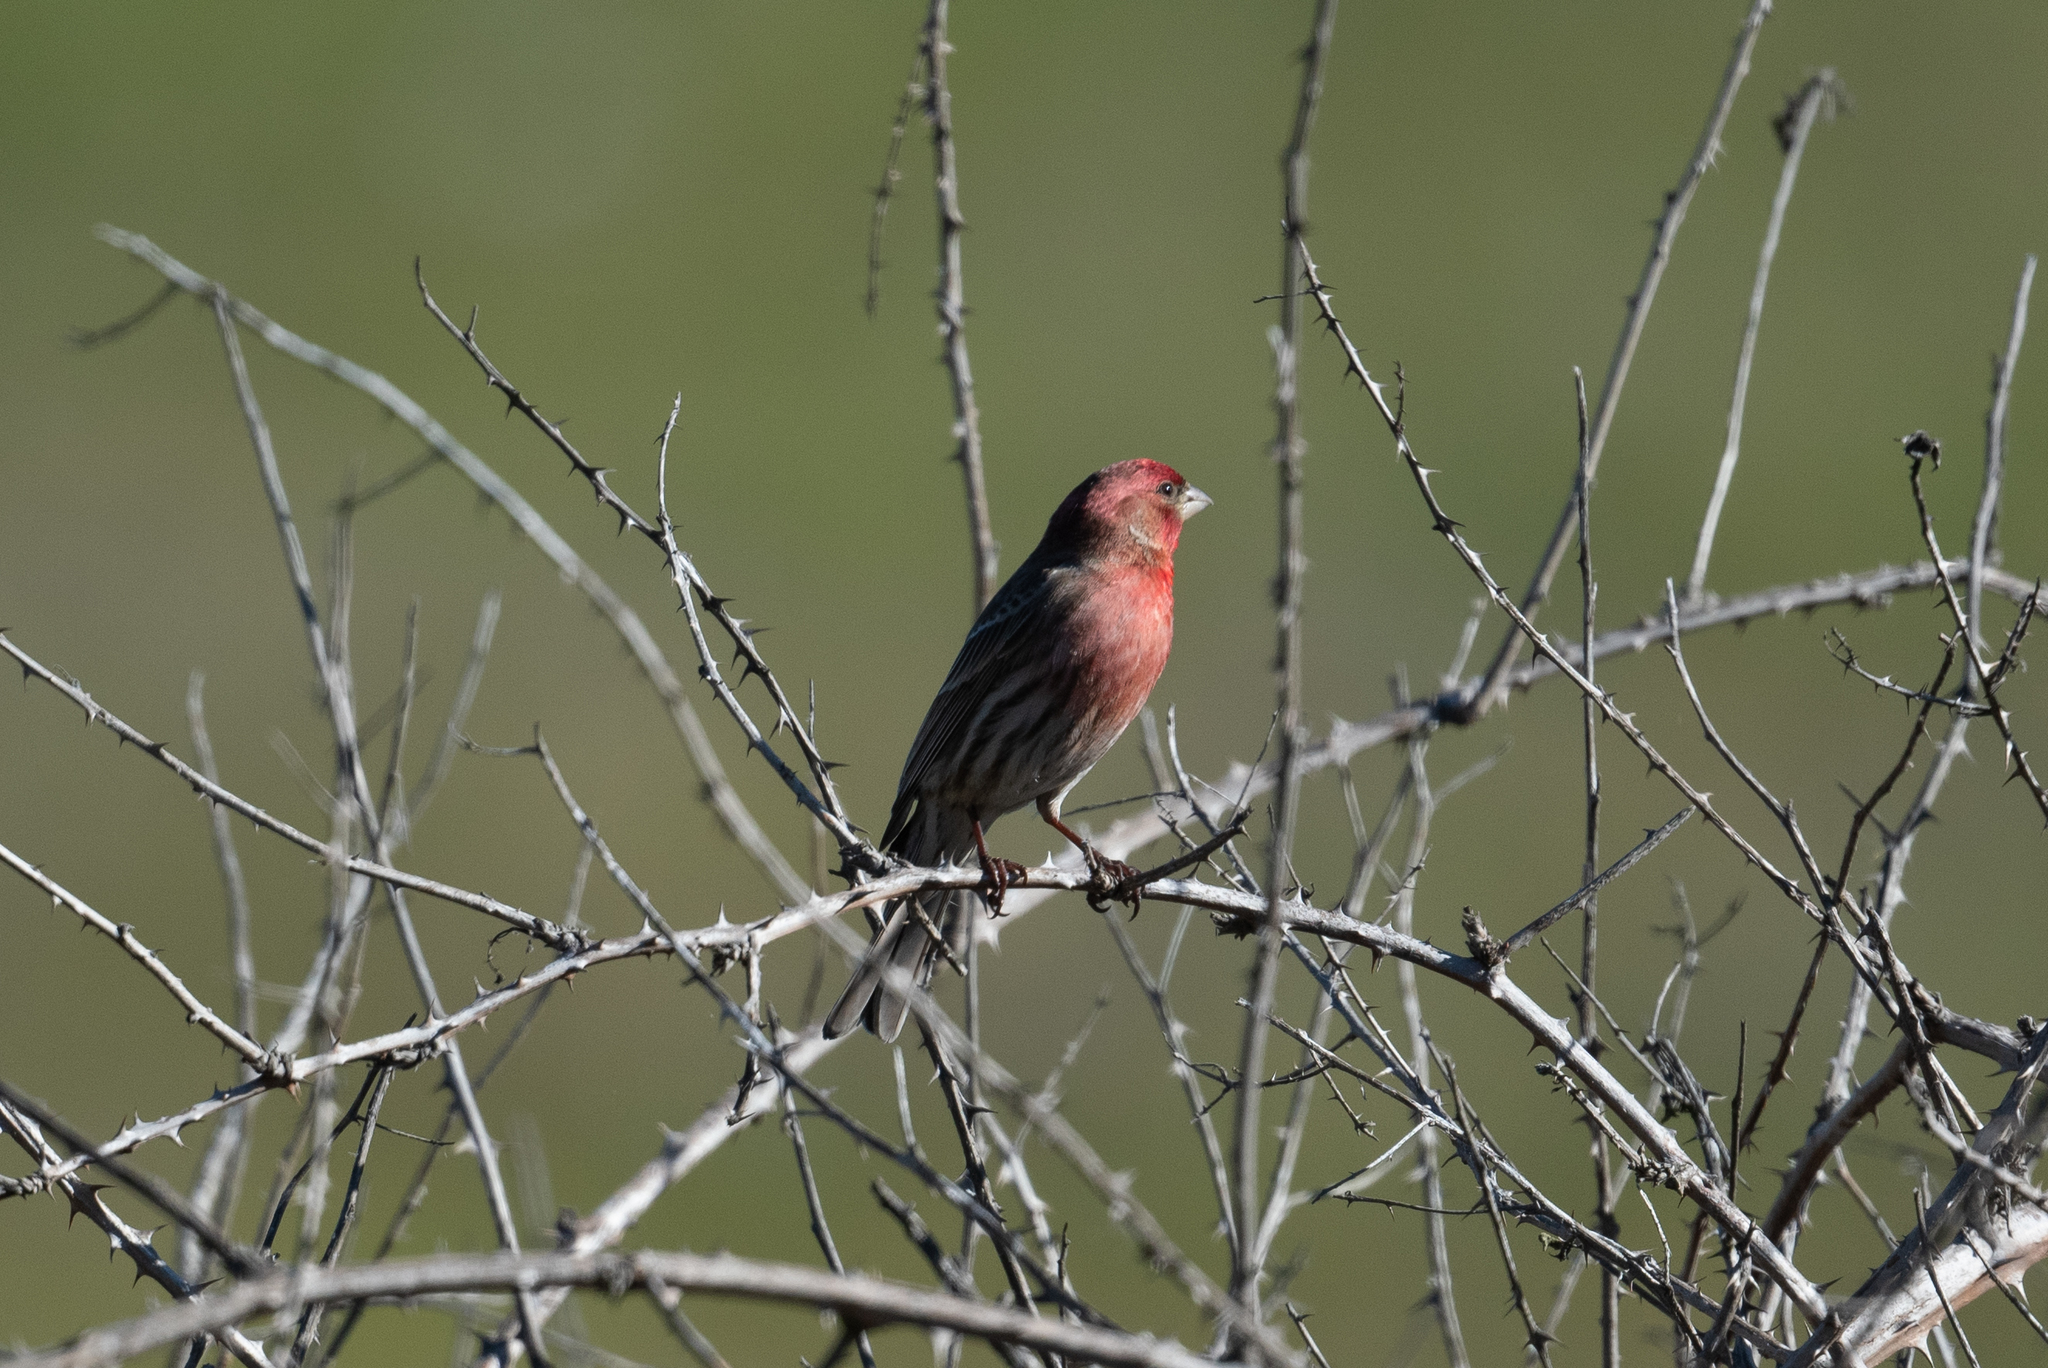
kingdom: Animalia
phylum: Chordata
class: Aves
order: Passeriformes
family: Fringillidae
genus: Haemorhous
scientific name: Haemorhous mexicanus
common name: House finch
